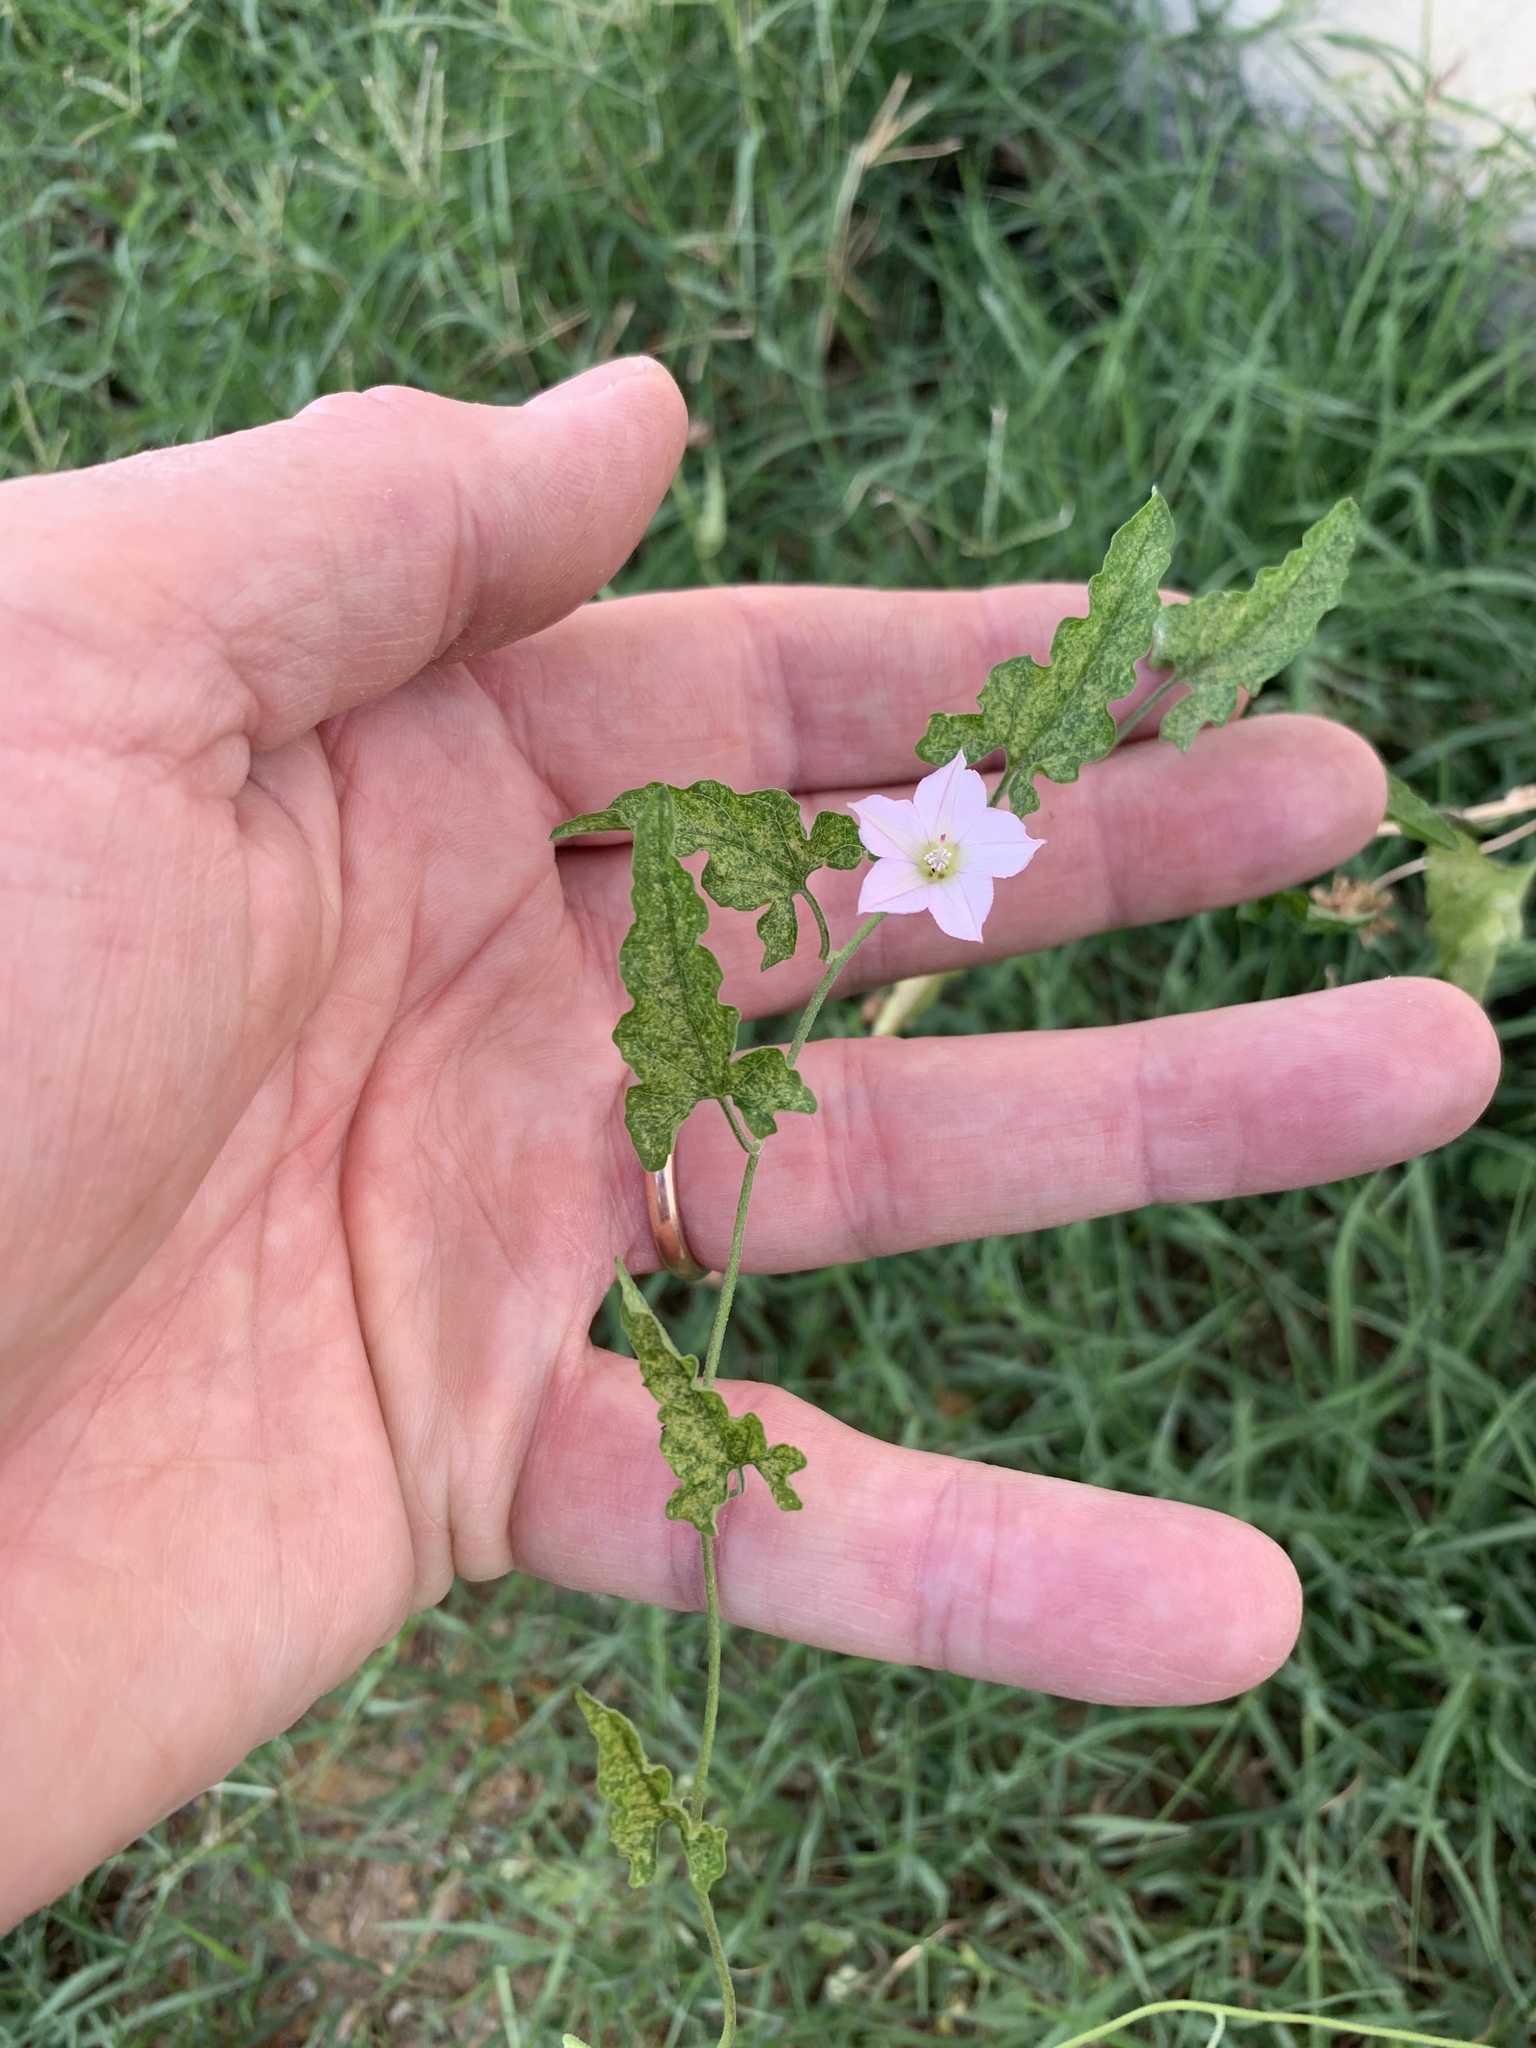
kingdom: Plantae
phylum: Tracheophyta
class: Magnoliopsida
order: Solanales
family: Convolvulaceae
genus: Convolvulus
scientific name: Convolvulus farinosus
